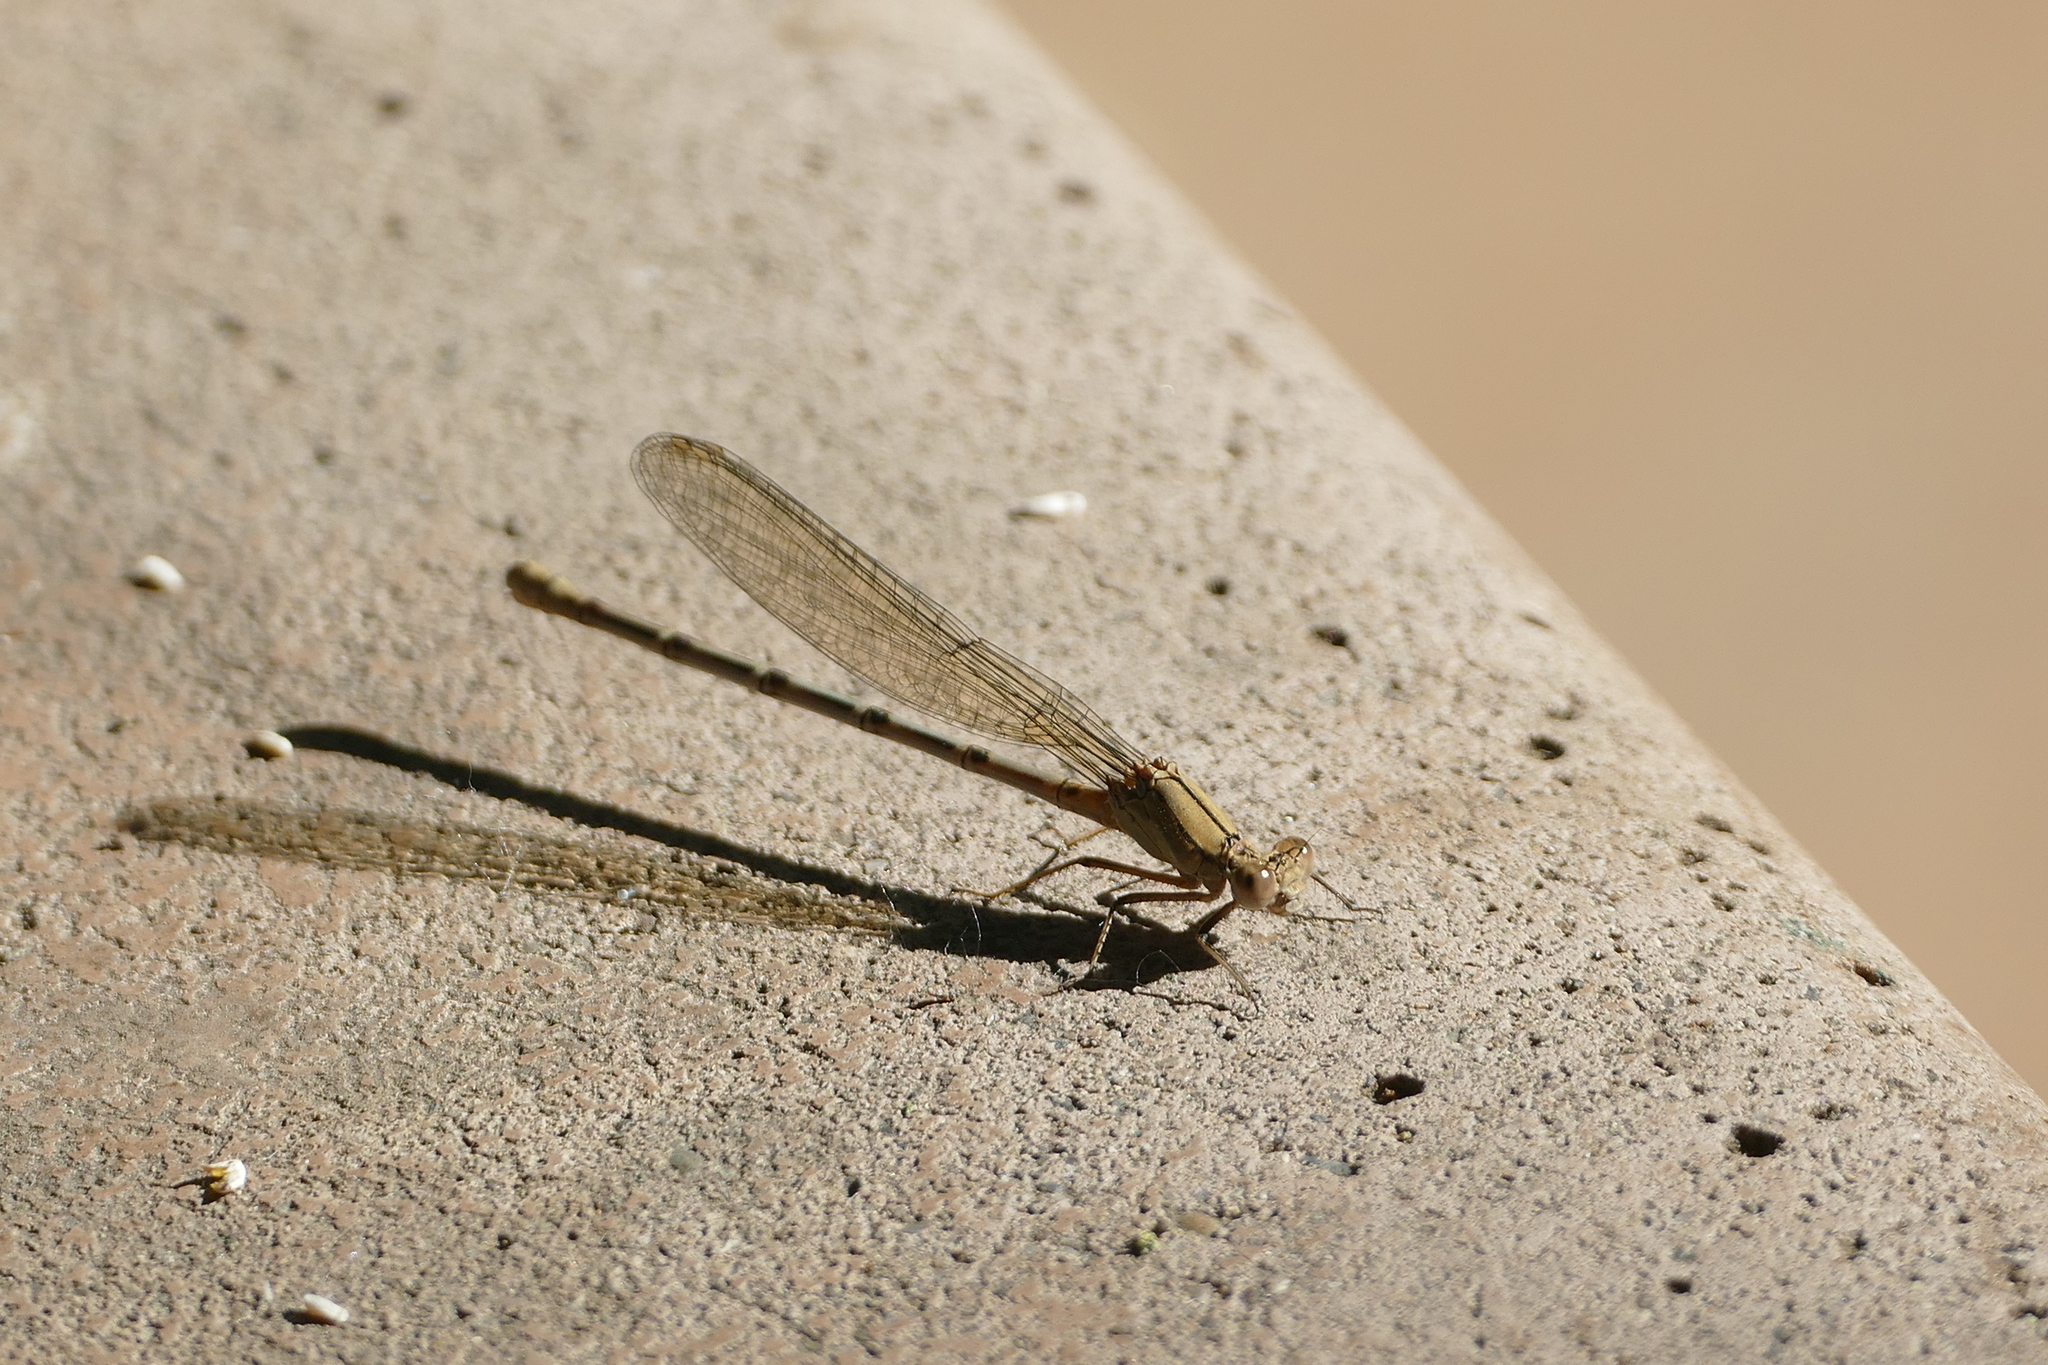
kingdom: Animalia
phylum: Arthropoda
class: Insecta
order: Odonata
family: Coenagrionidae
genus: Argia
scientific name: Argia emma
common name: Emma's dancer
